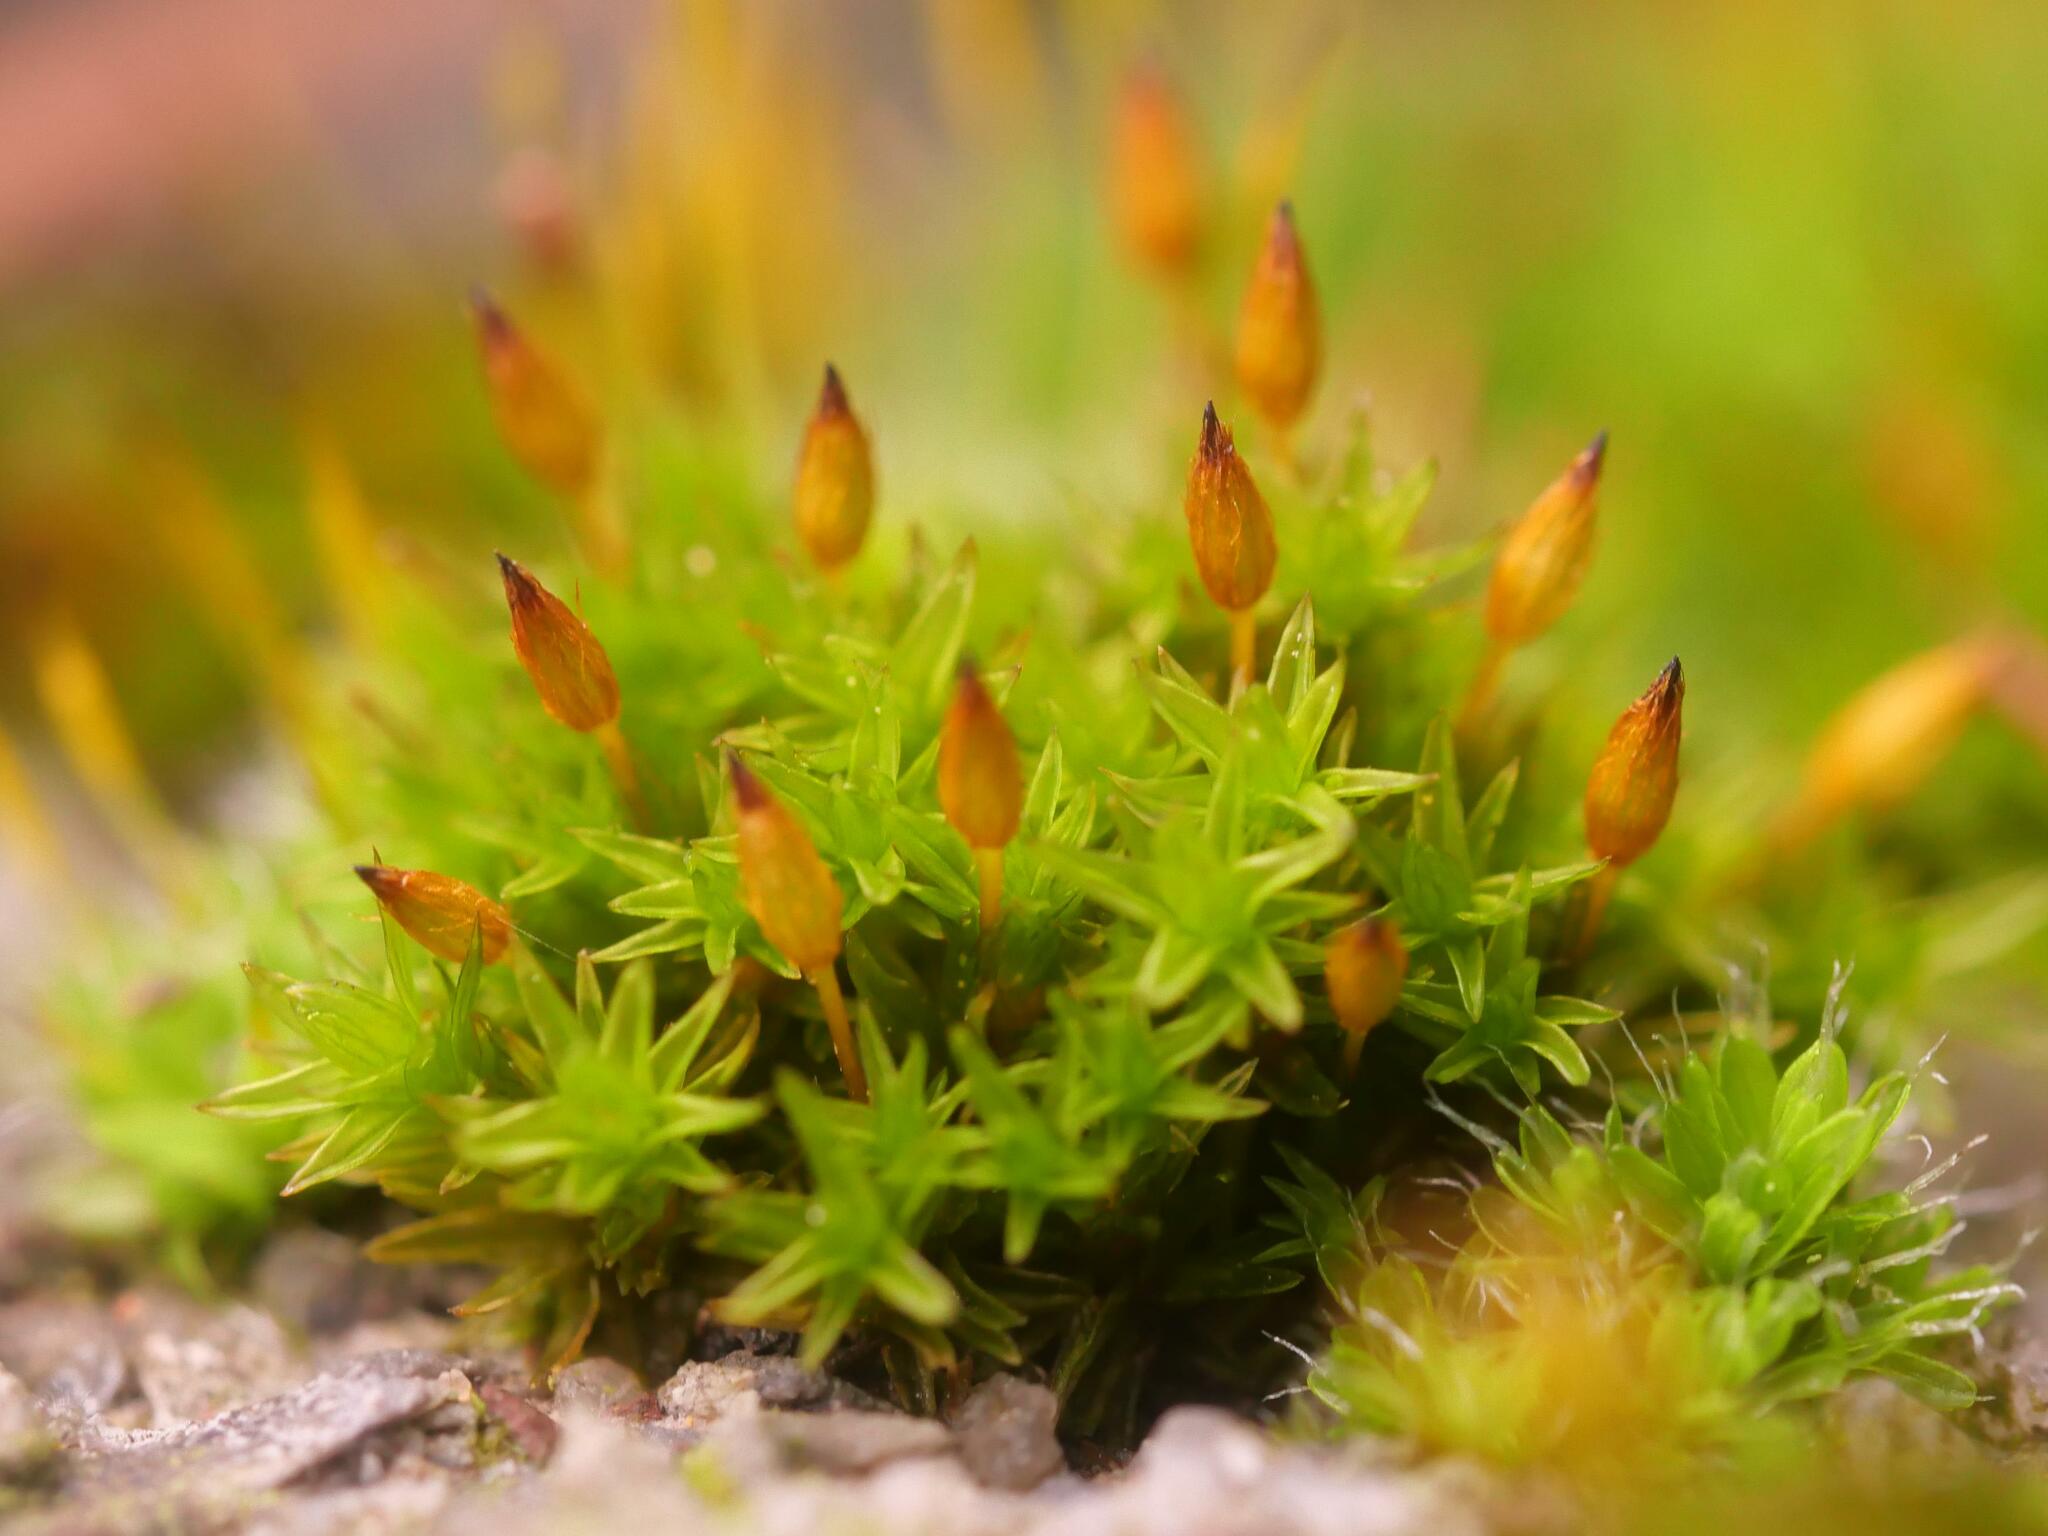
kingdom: Plantae
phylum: Bryophyta
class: Bryopsida
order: Orthotrichales
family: Orthotrichaceae
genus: Orthotrichum
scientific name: Orthotrichum anomalum
